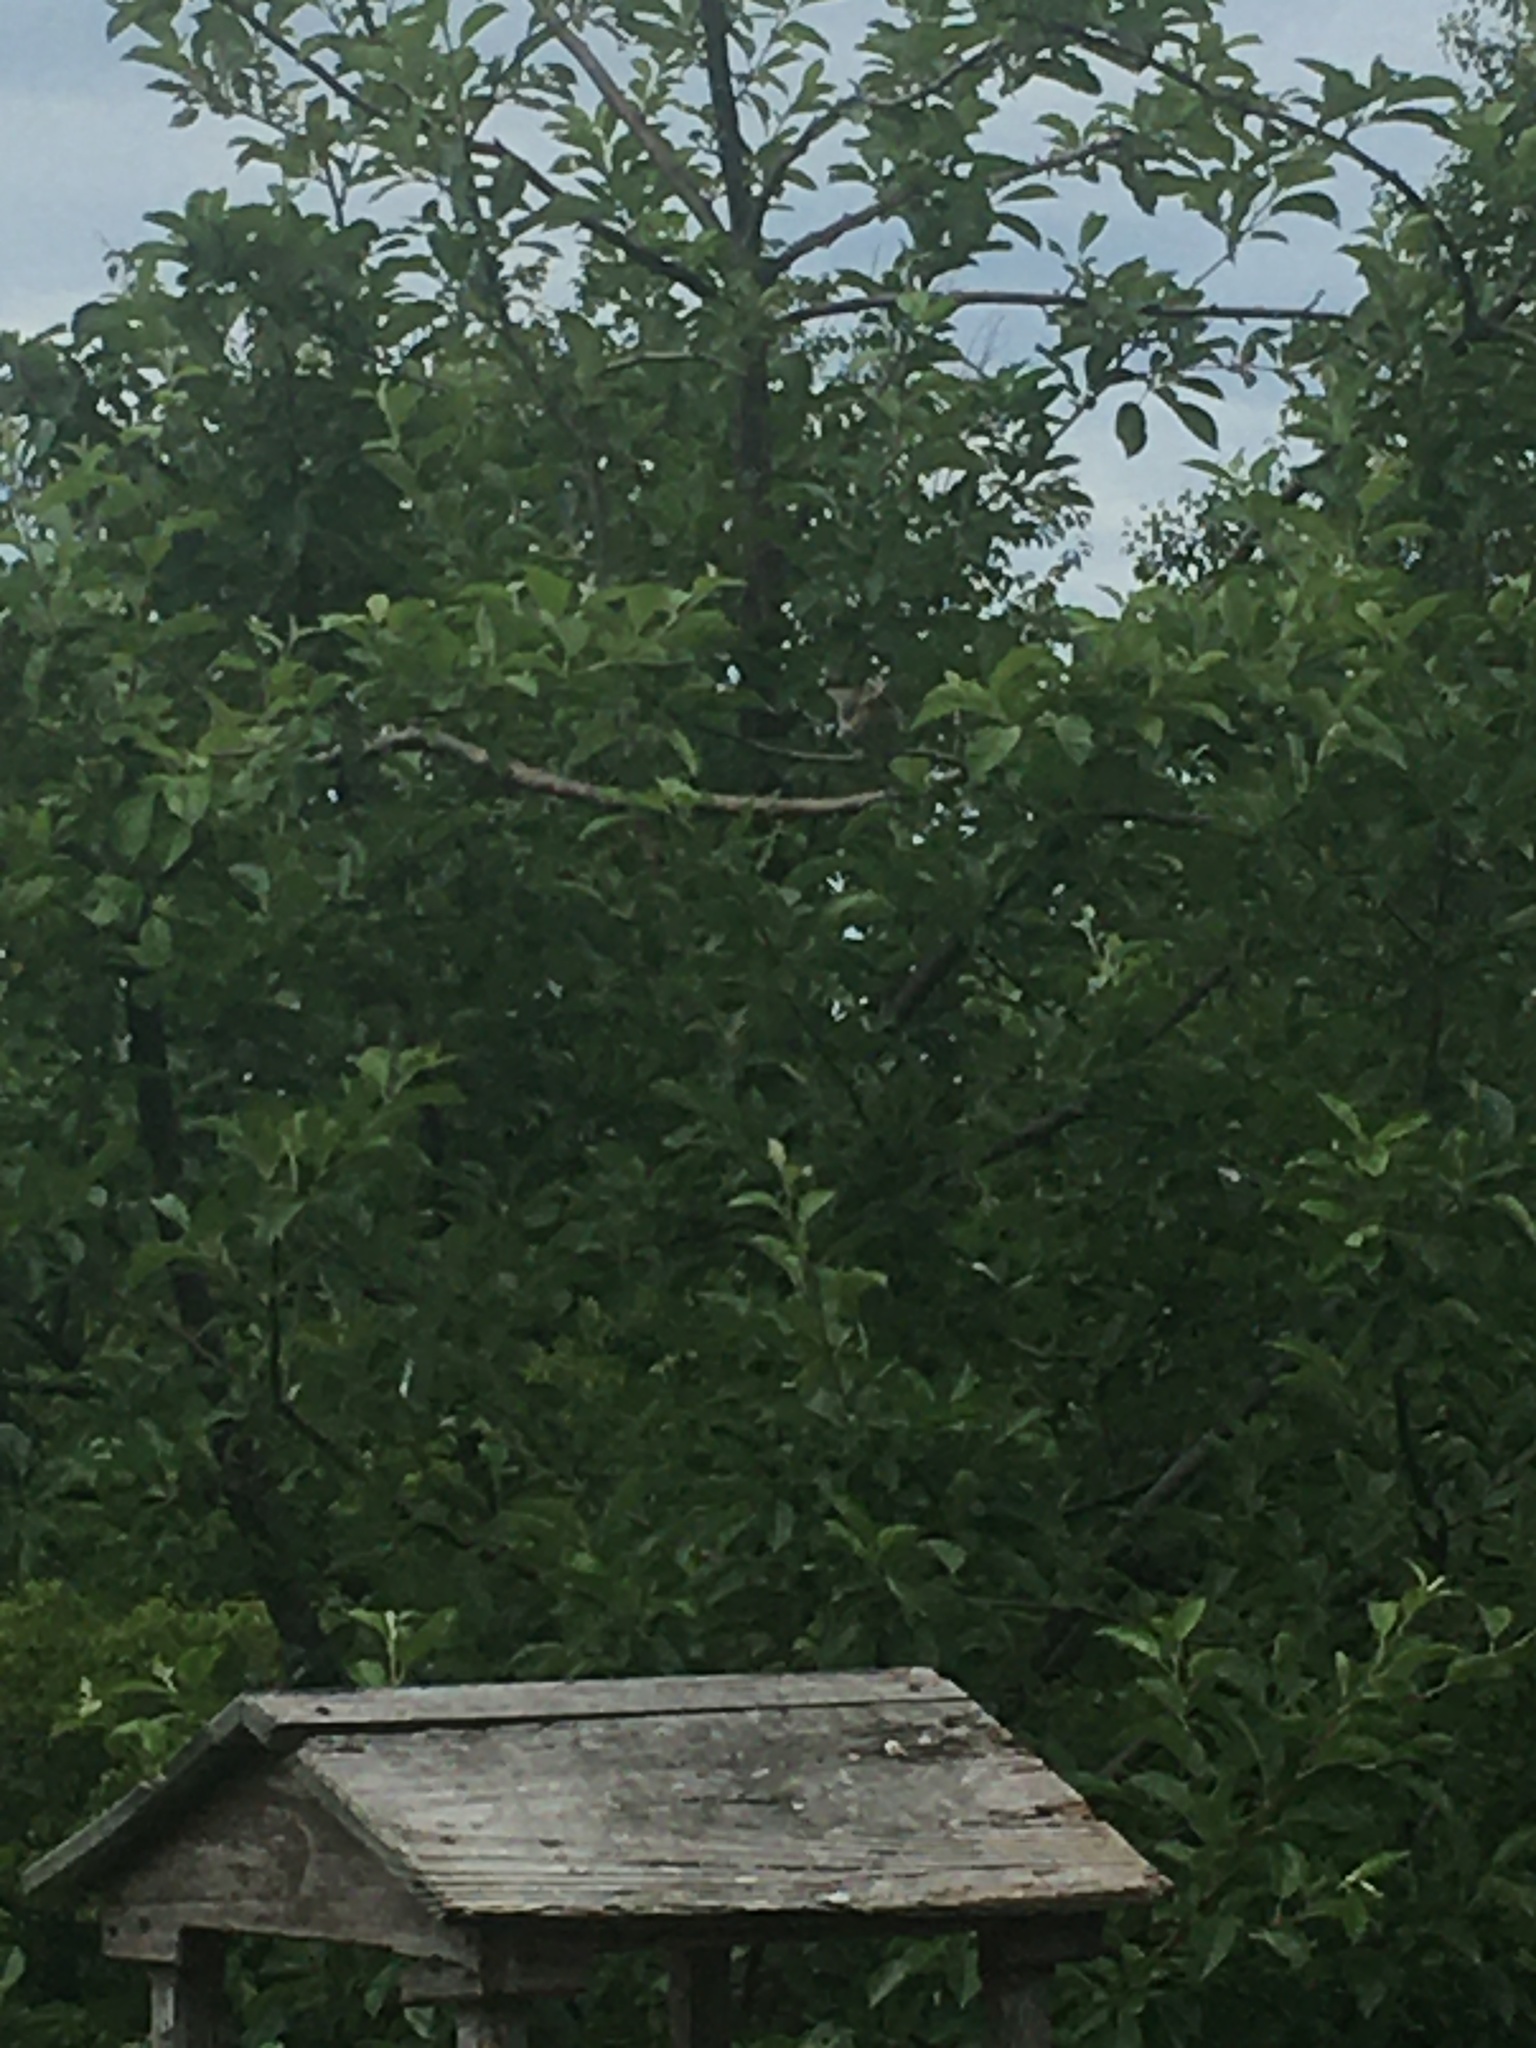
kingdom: Animalia
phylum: Chordata
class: Aves
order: Passeriformes
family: Cardinalidae
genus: Pheucticus
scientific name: Pheucticus ludovicianus
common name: Rose-breasted grosbeak
